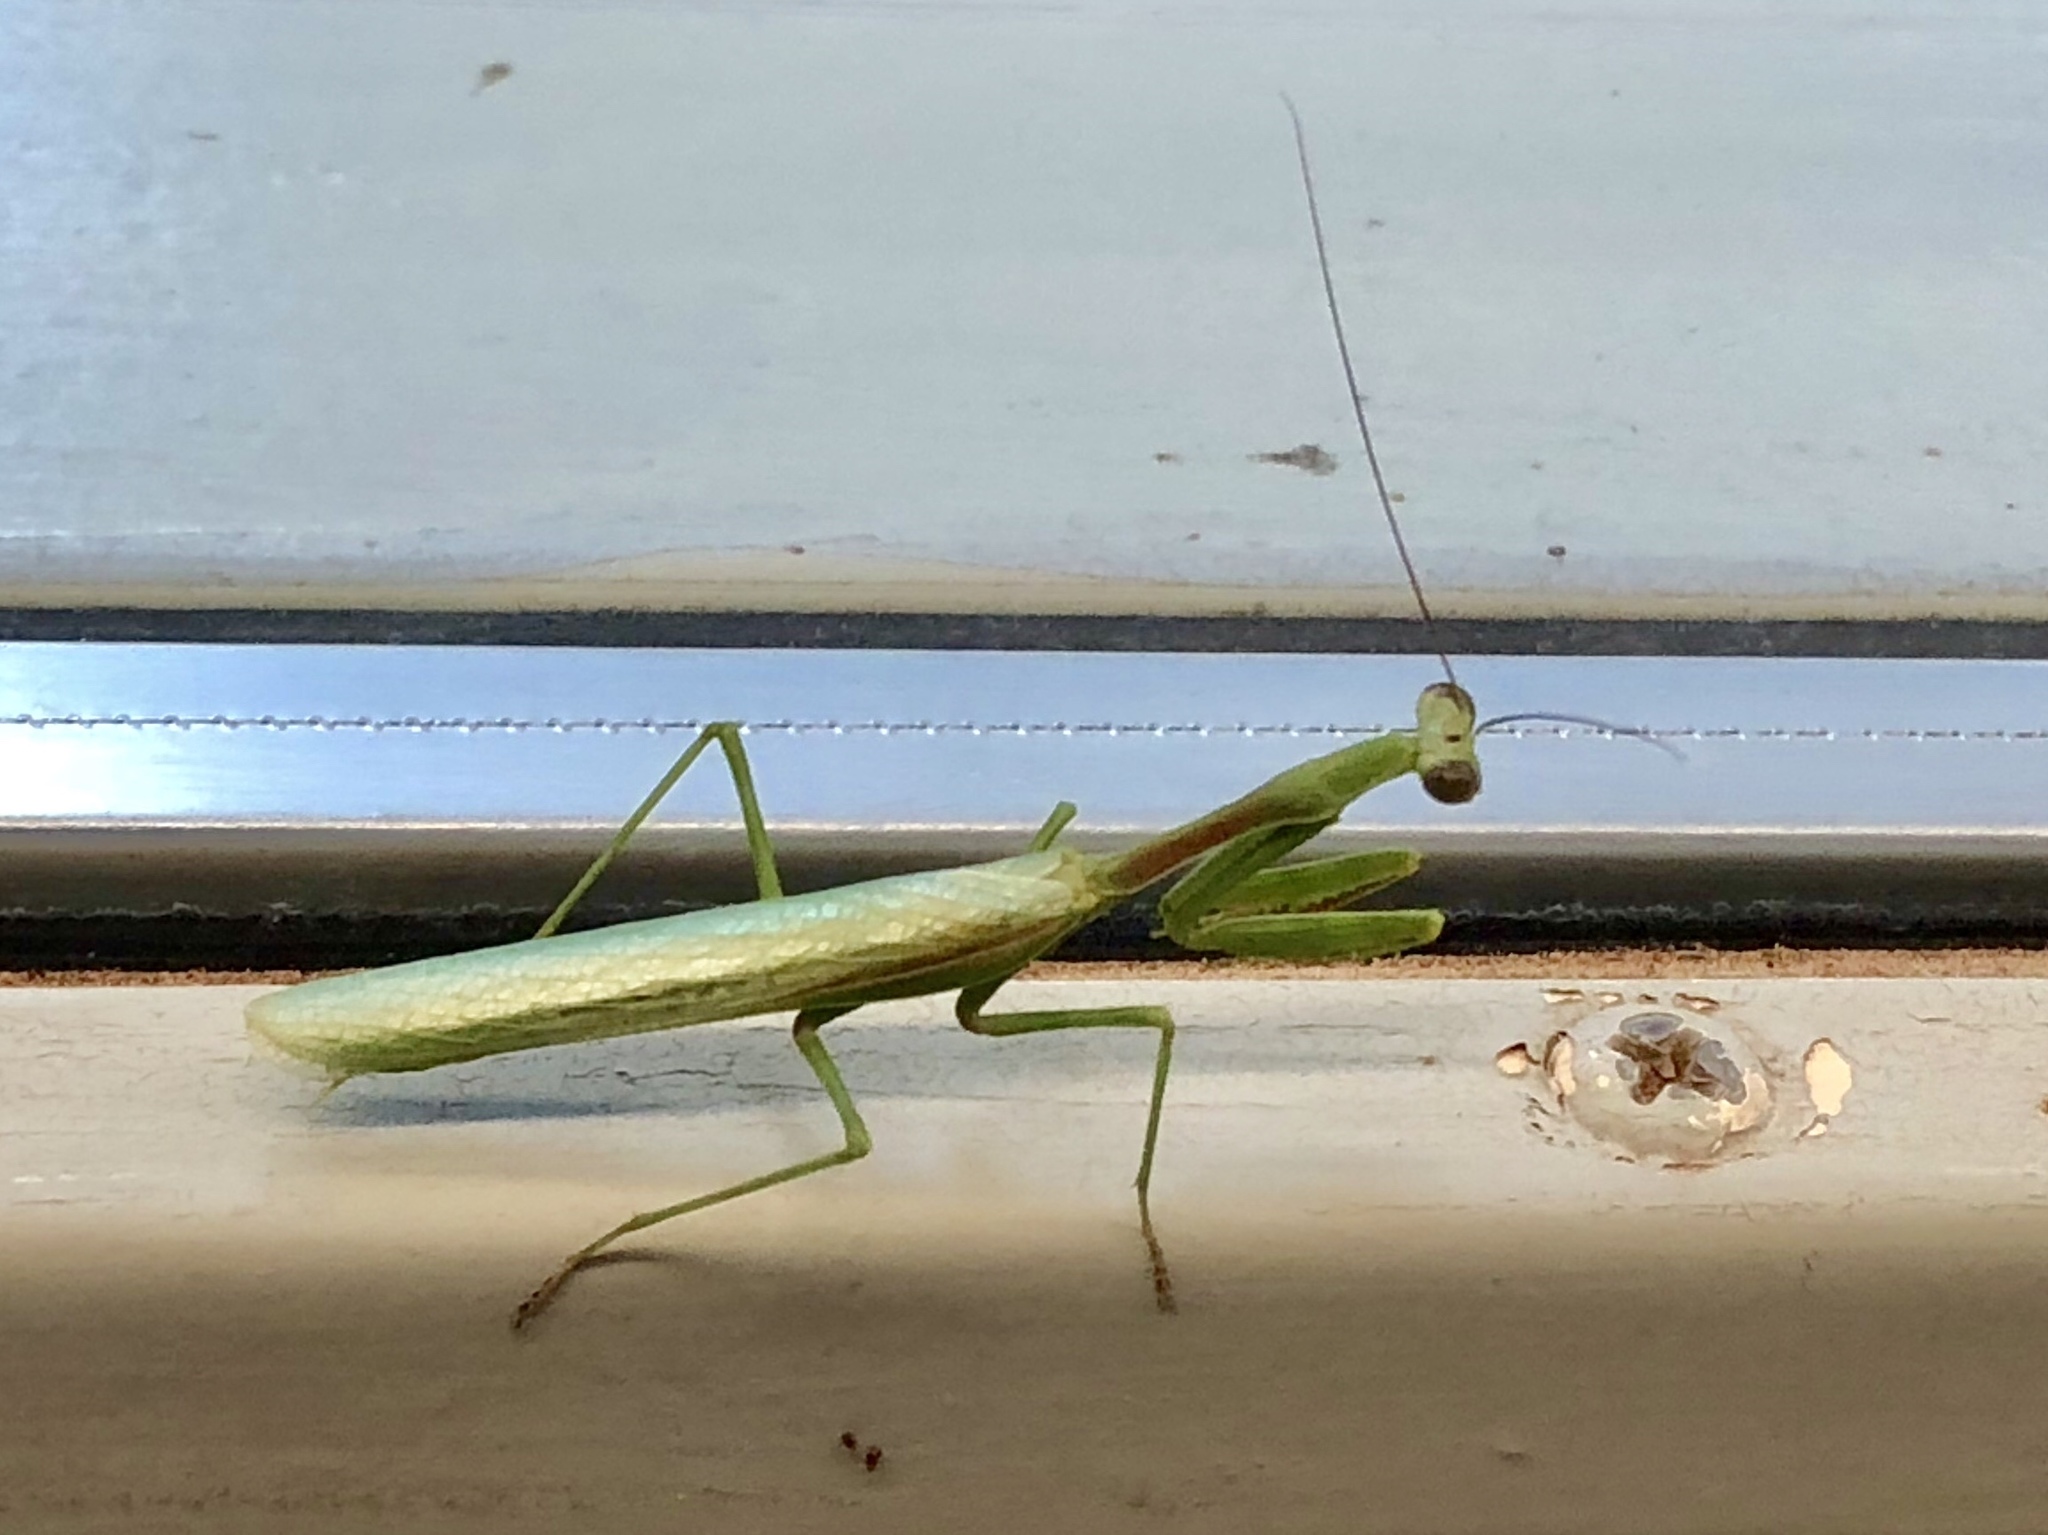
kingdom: Animalia
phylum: Arthropoda
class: Insecta
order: Mantodea
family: Mantidae
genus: Stagmomantis
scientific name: Stagmomantis limbata
